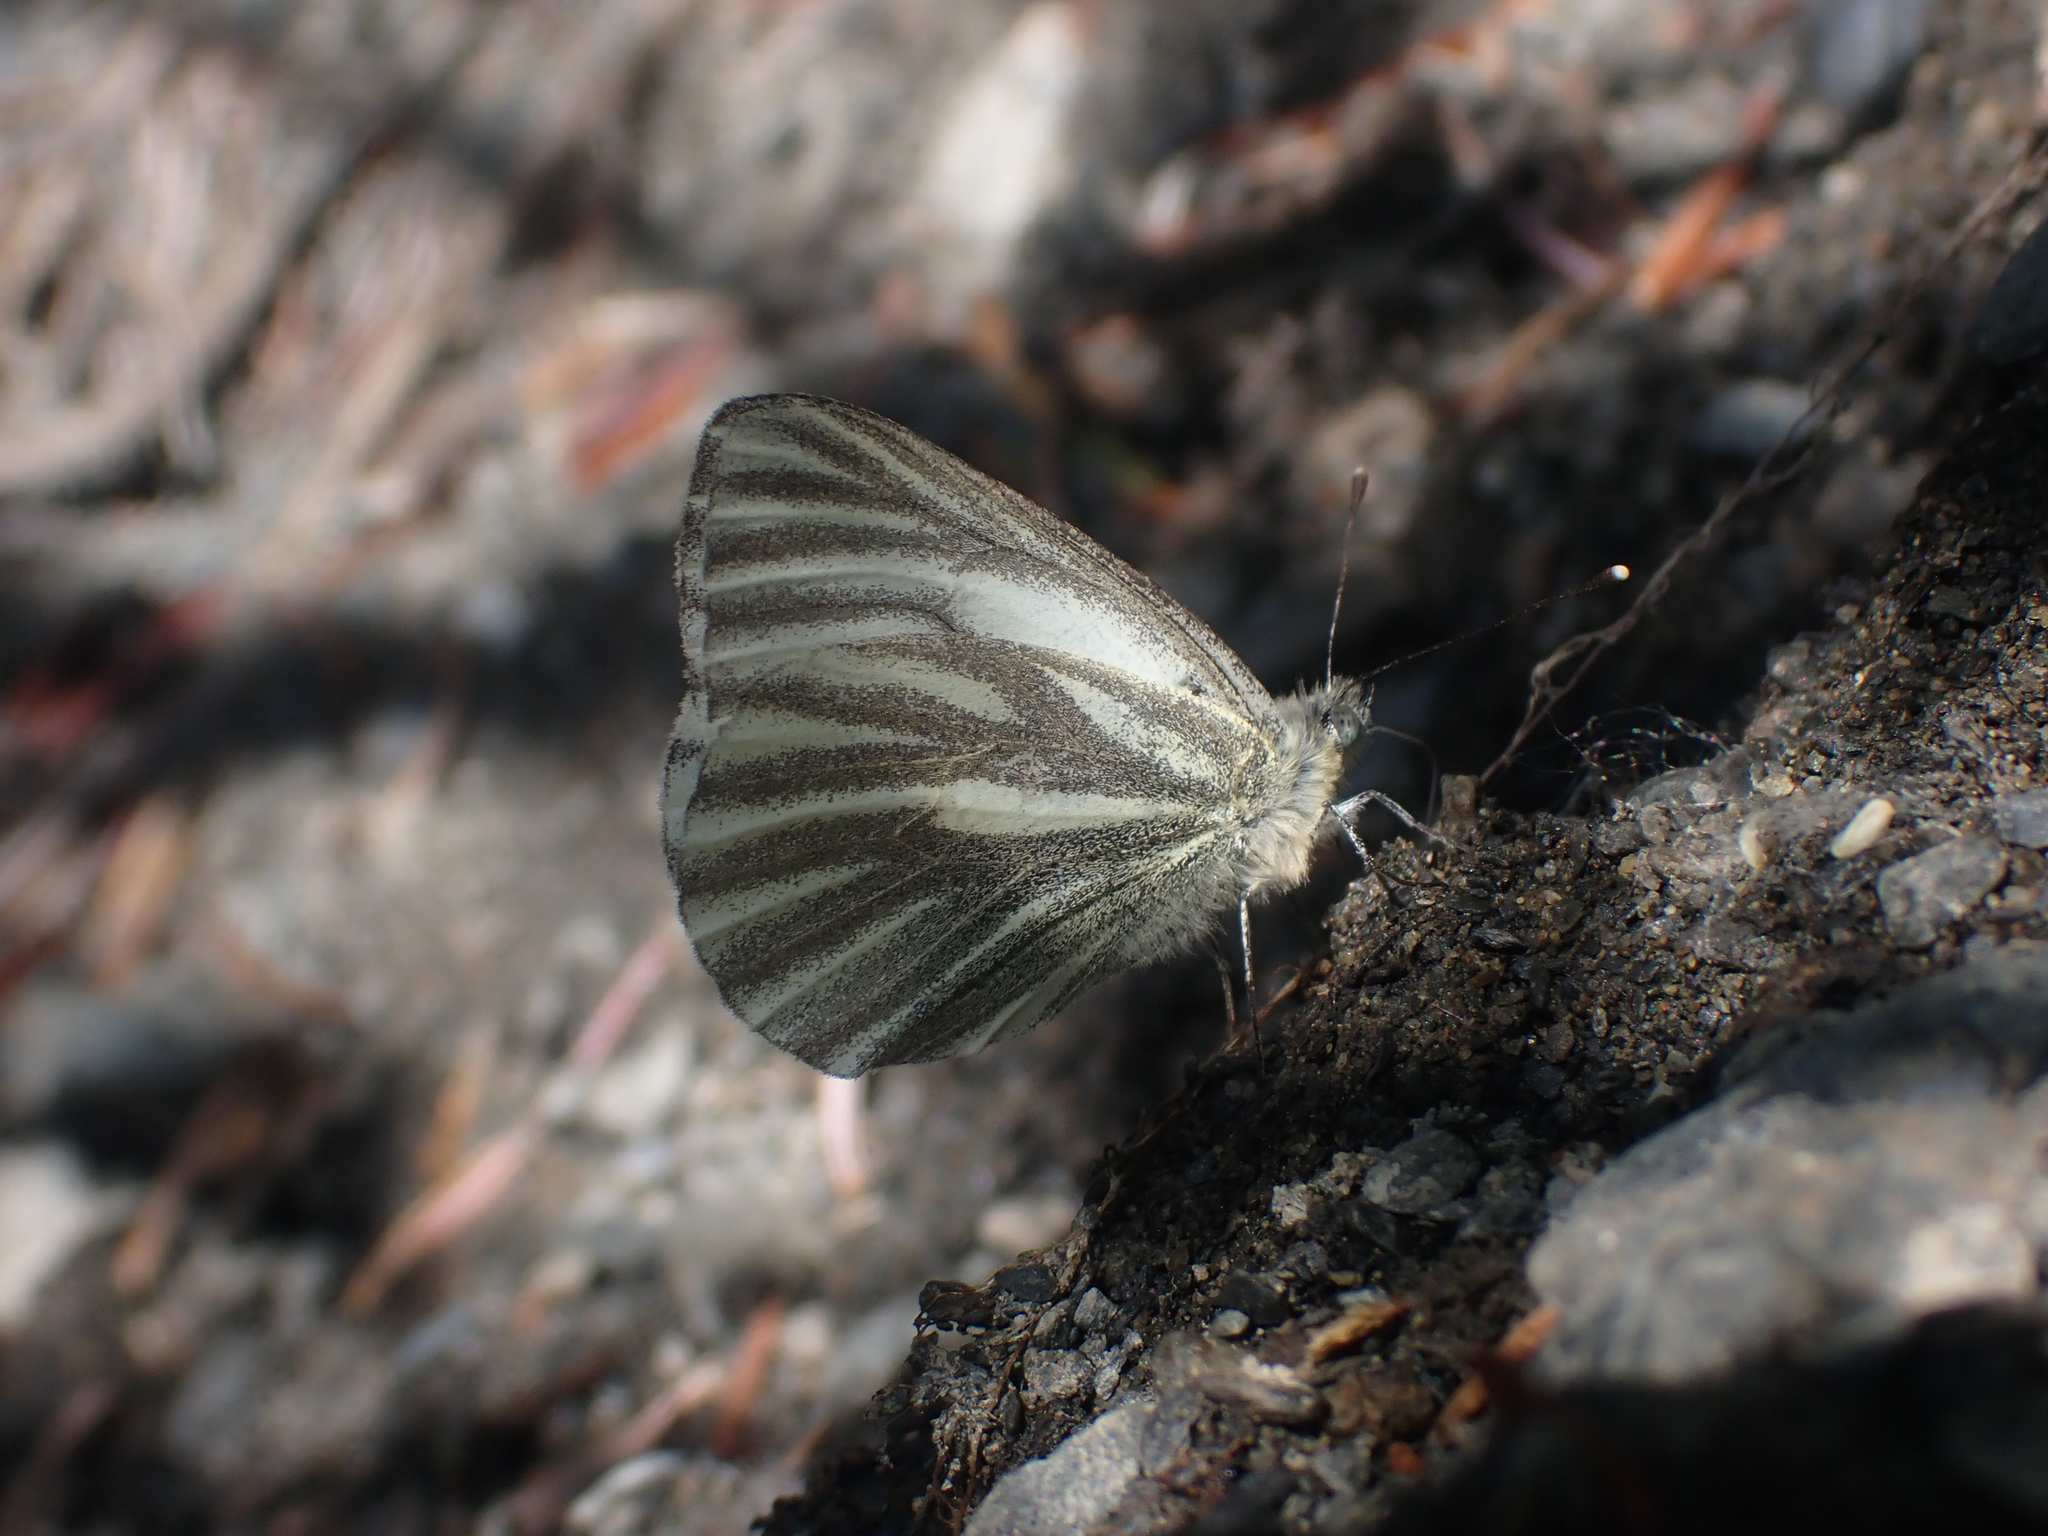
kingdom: Animalia
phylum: Arthropoda
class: Insecta
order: Lepidoptera
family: Pieridae
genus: Pieris
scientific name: Pieris marginalis
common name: Margined white
